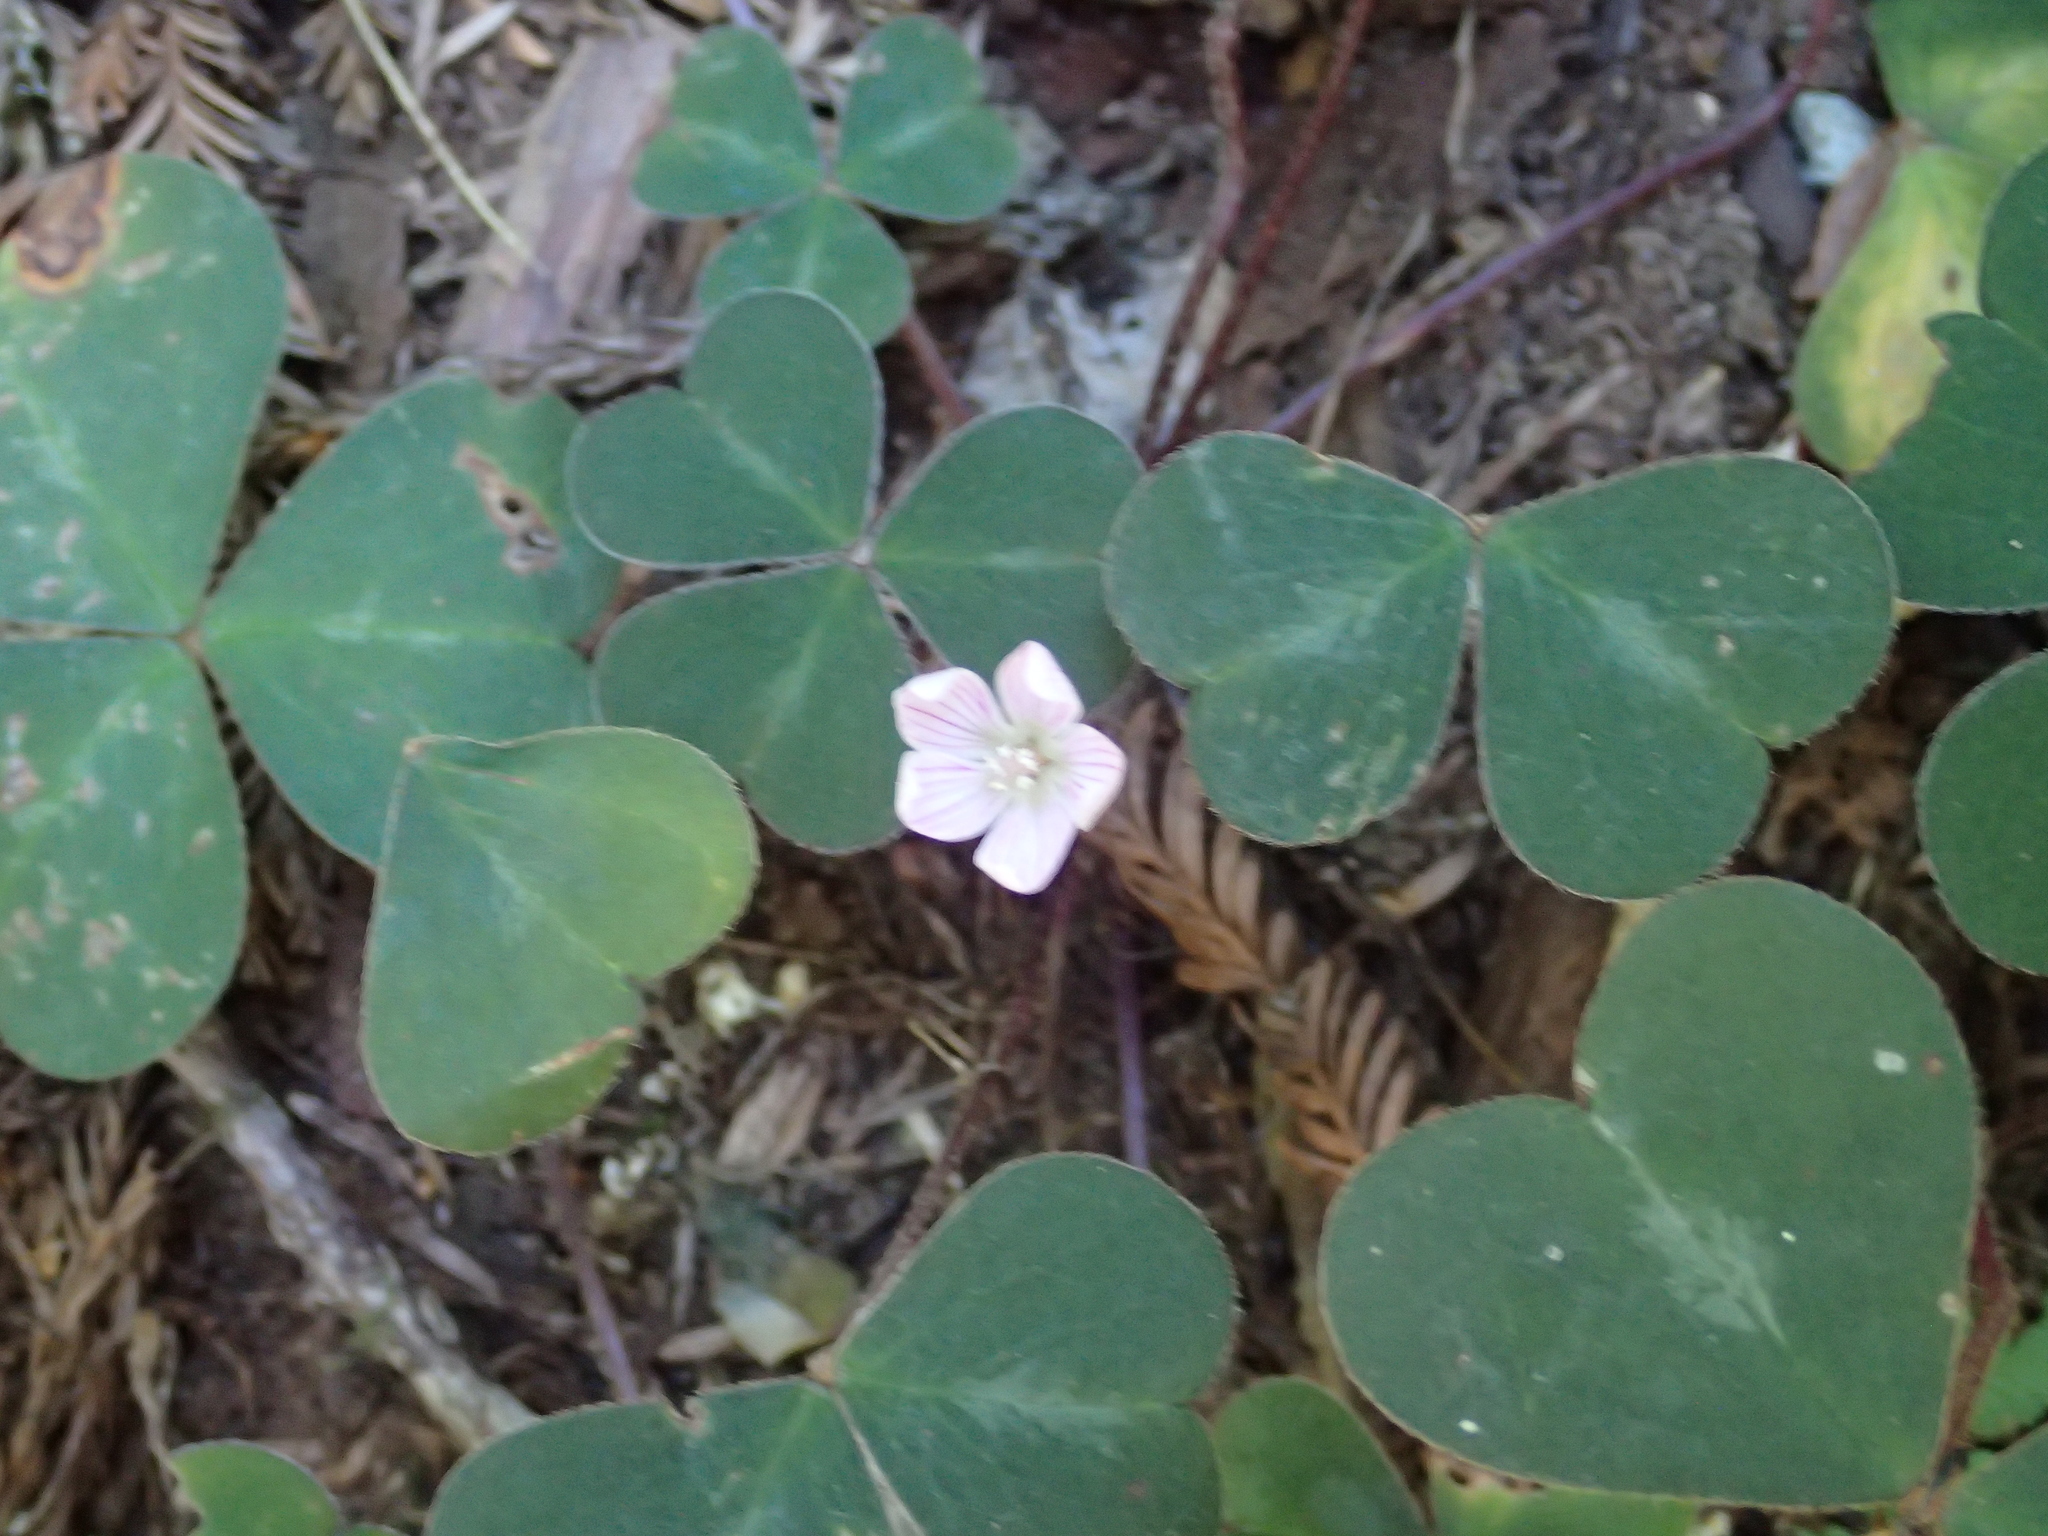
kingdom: Plantae
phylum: Tracheophyta
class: Magnoliopsida
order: Oxalidales
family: Oxalidaceae
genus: Oxalis
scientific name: Oxalis oregana
